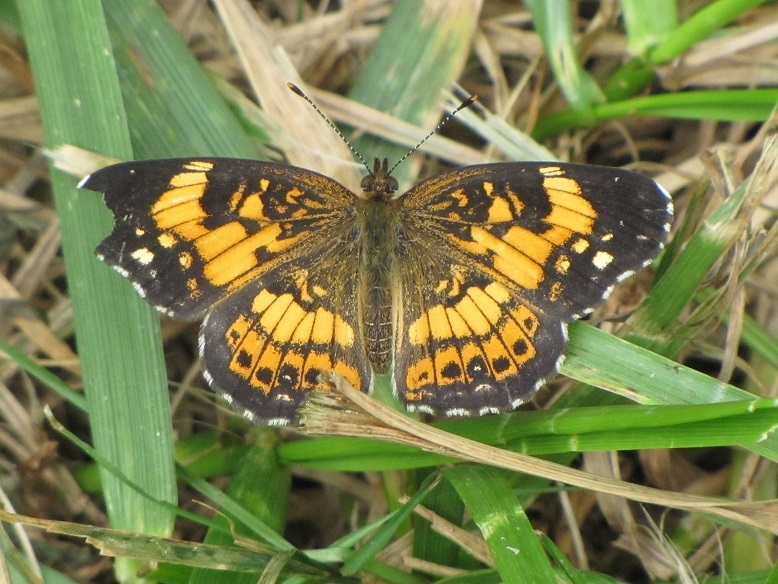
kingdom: Animalia
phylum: Arthropoda
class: Insecta
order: Lepidoptera
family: Nymphalidae
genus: Chlosyne
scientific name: Chlosyne nycteis
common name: Silvery checkerspot
